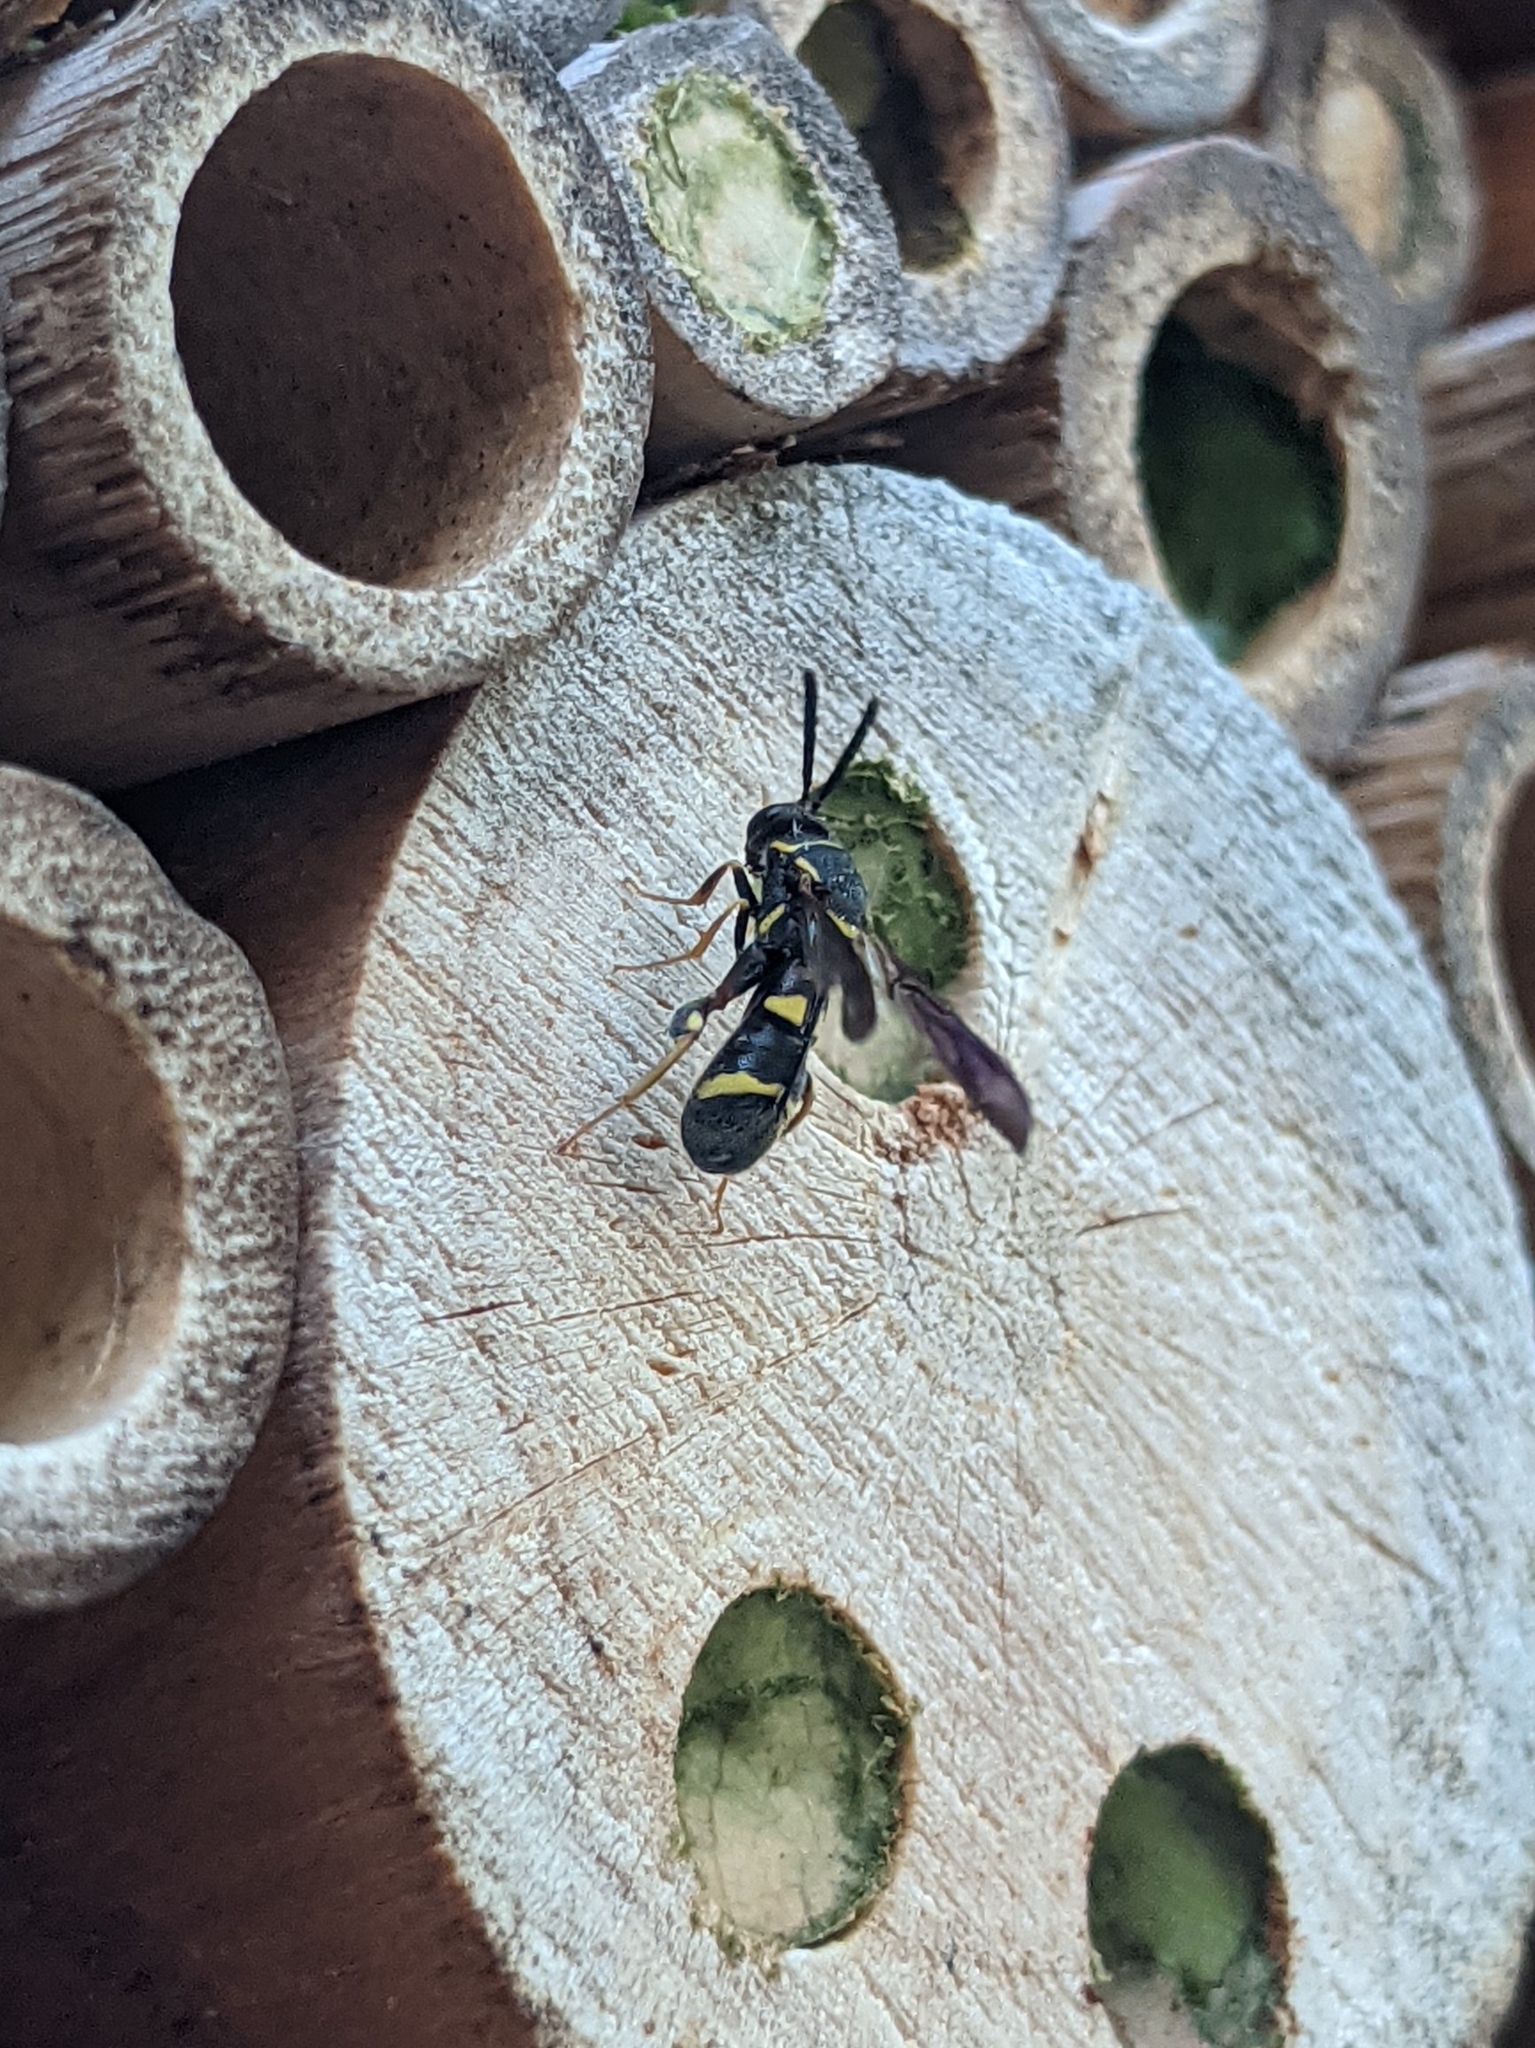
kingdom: Animalia
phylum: Arthropoda
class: Insecta
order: Hymenoptera
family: Leucospidae
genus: Leucospis
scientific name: Leucospis affinis
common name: Wasp
